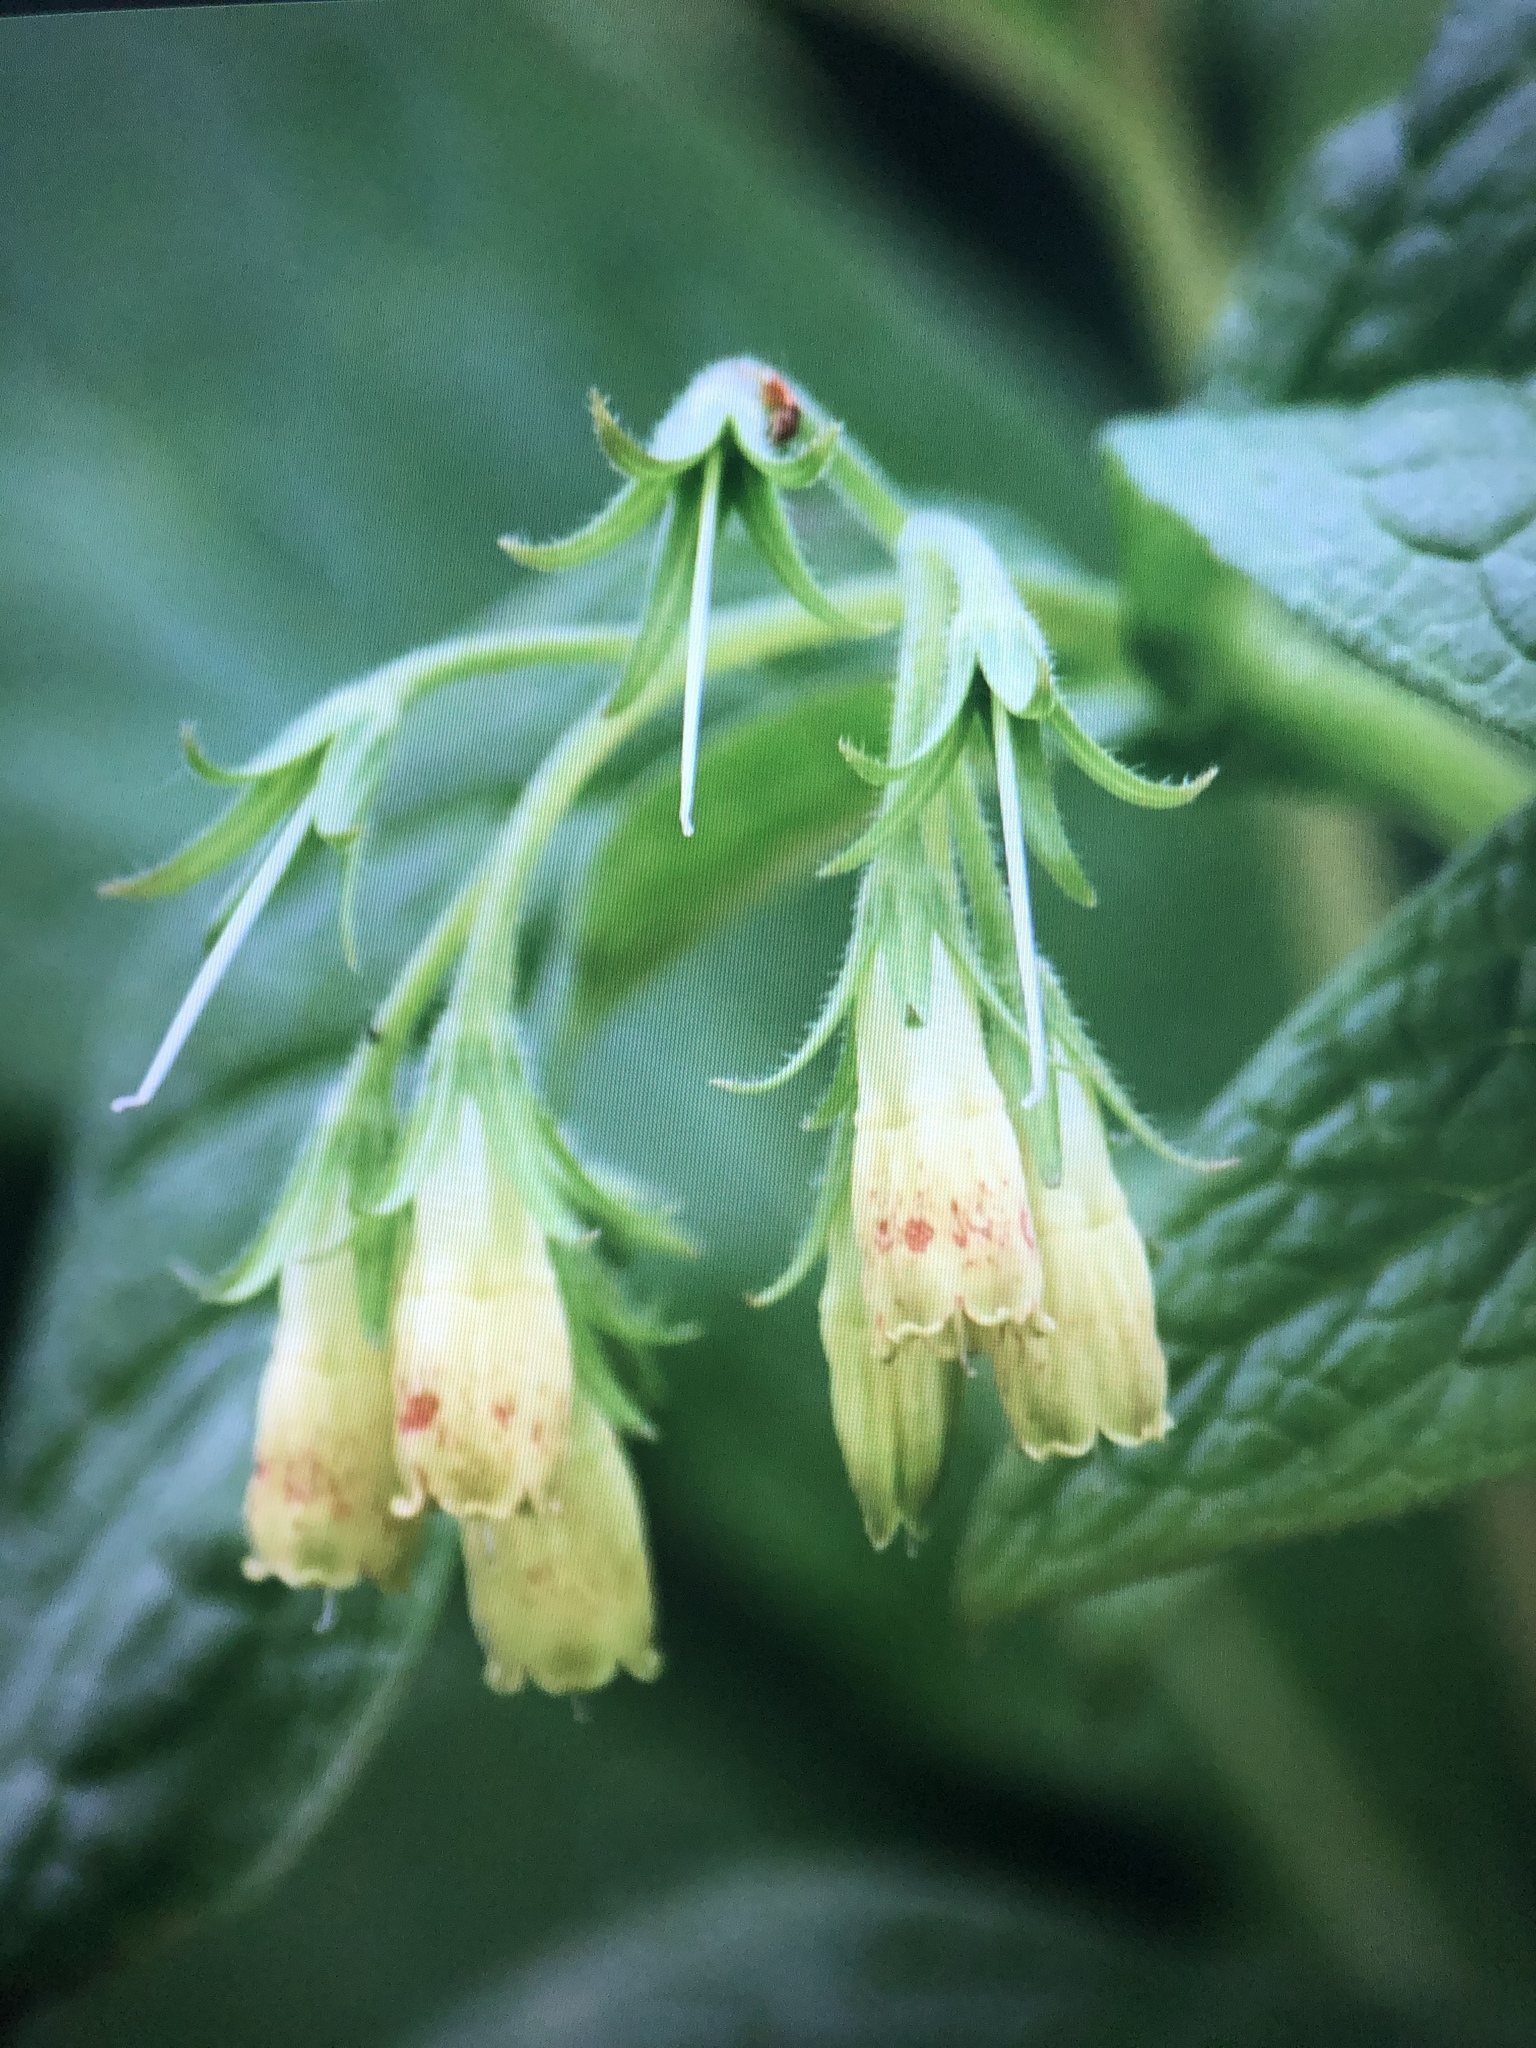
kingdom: Plantae
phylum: Tracheophyta
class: Magnoliopsida
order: Boraginales
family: Boraginaceae
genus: Symphytum
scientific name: Symphytum tuberosum
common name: Tuberous comfrey
